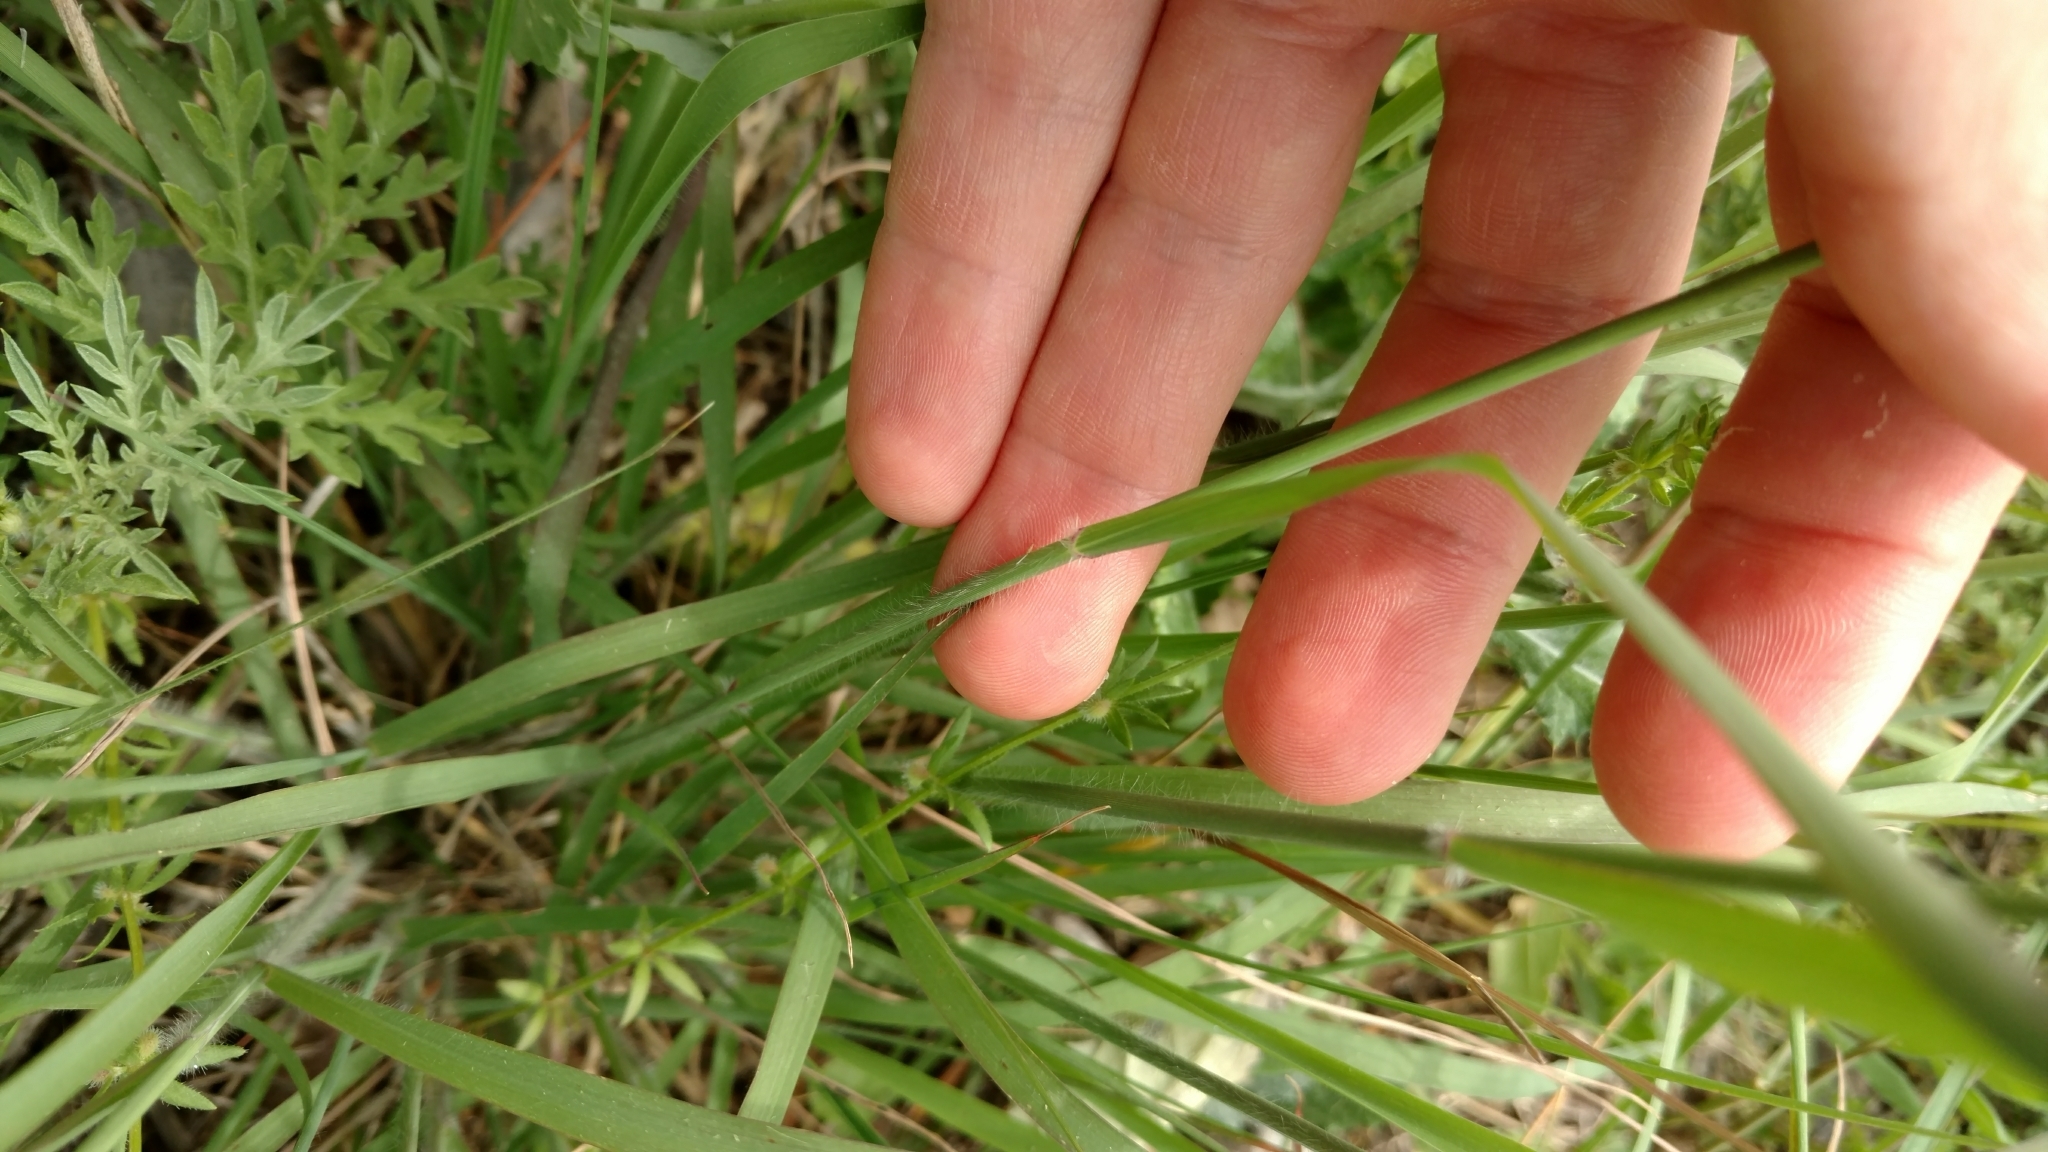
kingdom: Plantae
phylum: Tracheophyta
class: Liliopsida
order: Poales
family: Poaceae
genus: Tridentopsis
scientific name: Tridentopsis mutica
